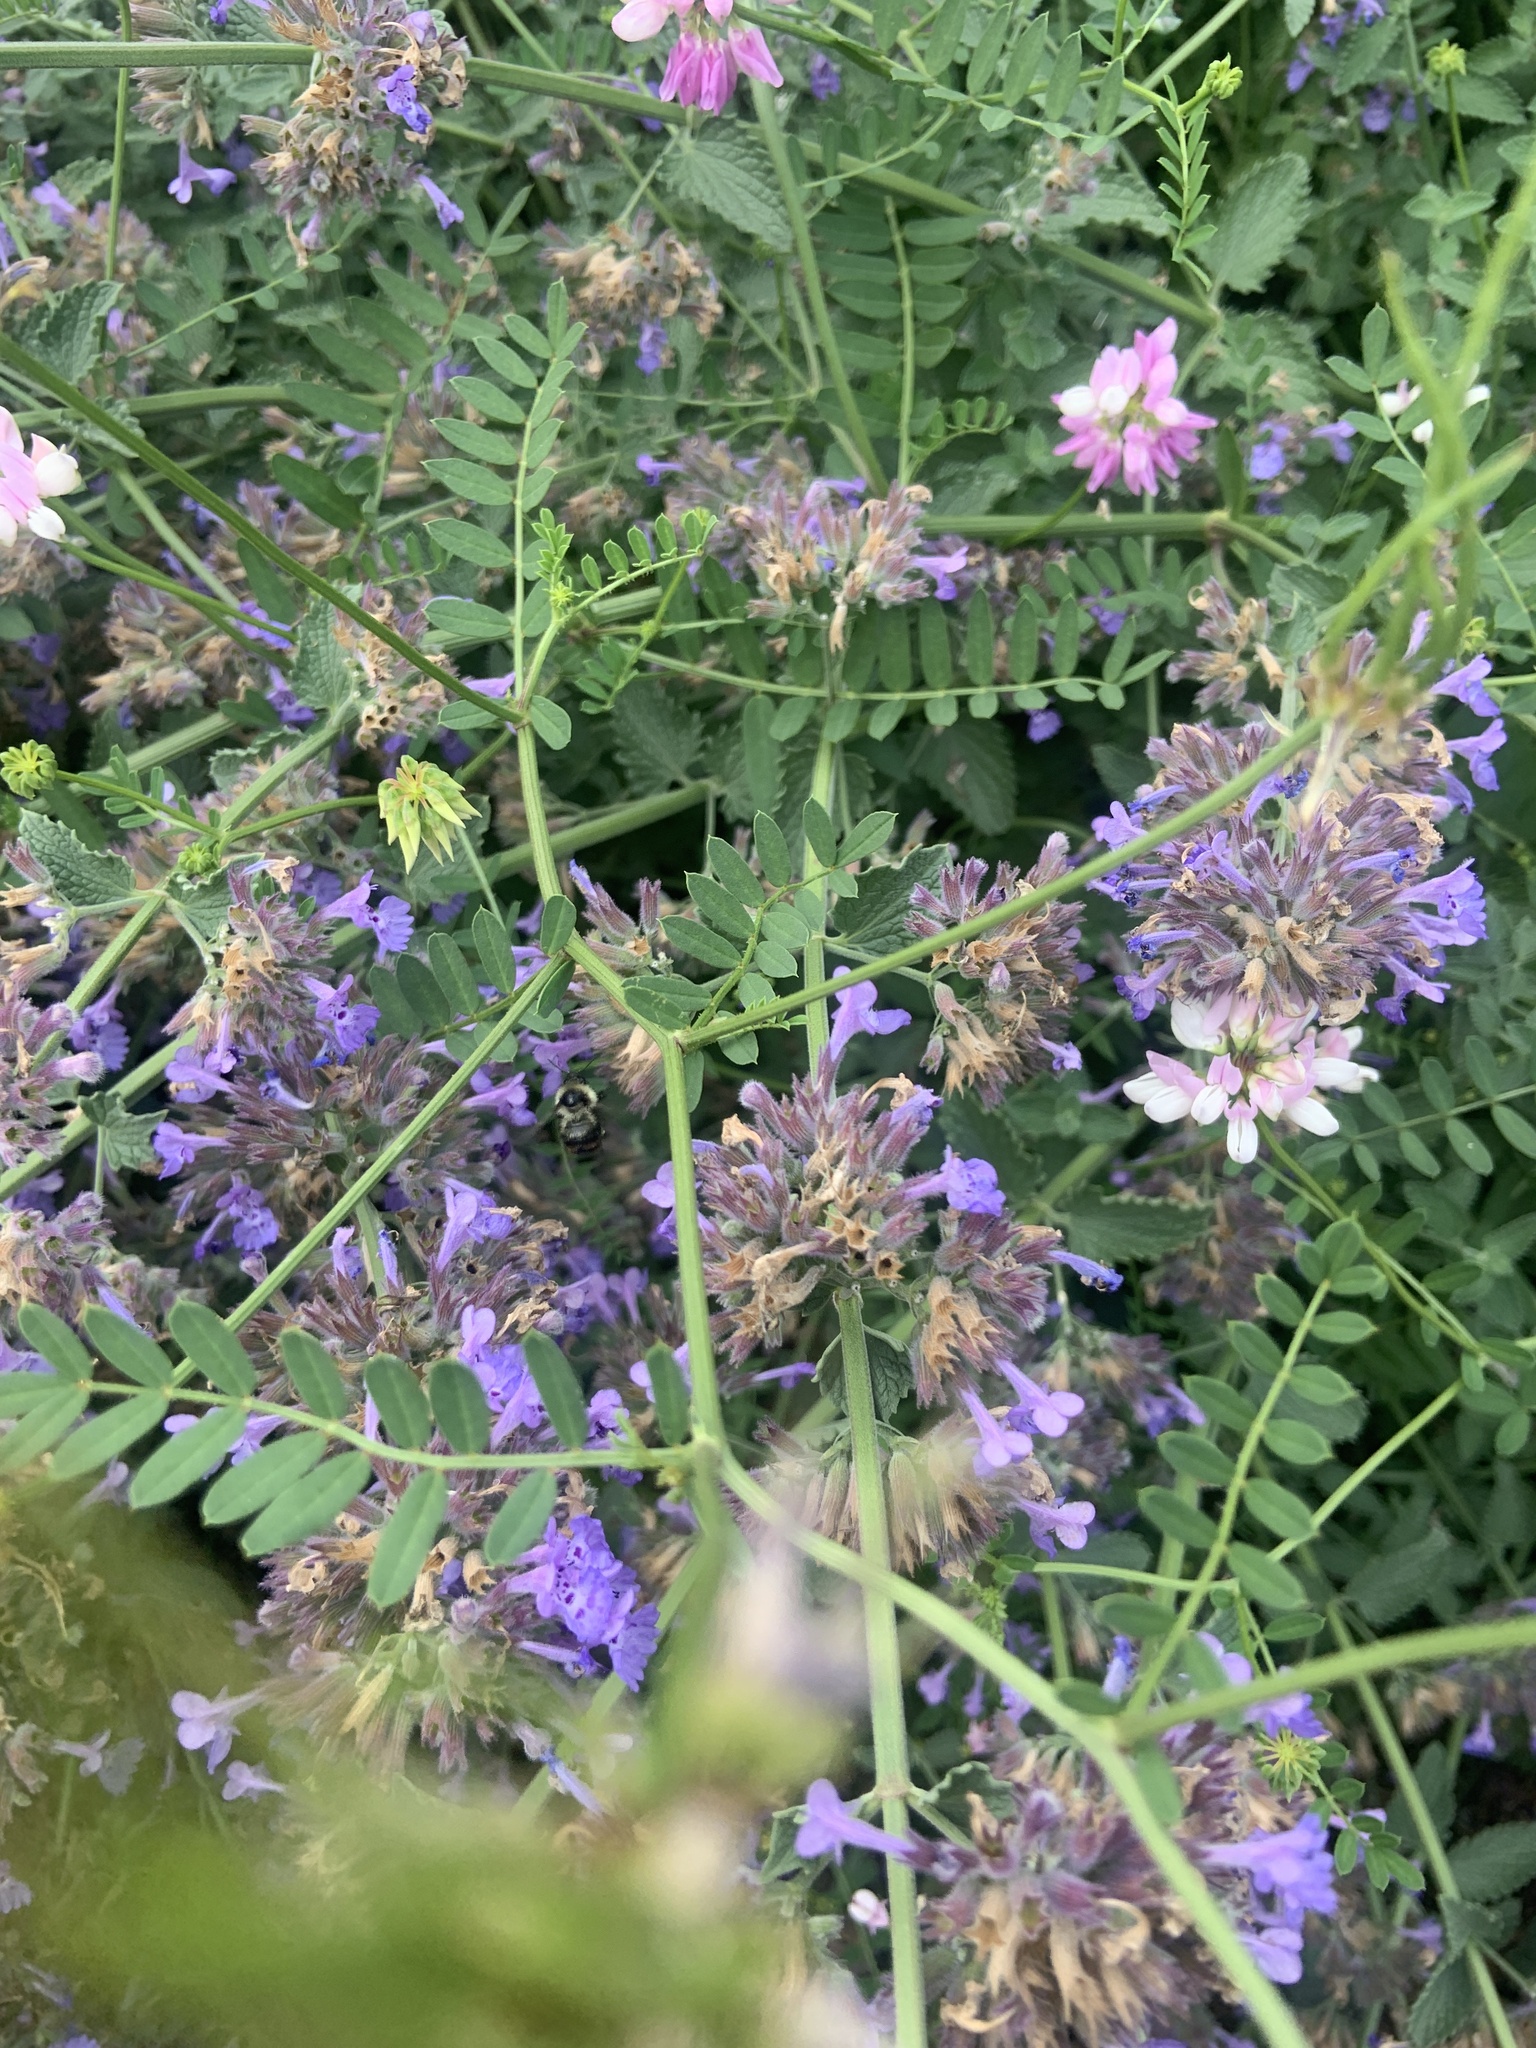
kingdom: Animalia
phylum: Arthropoda
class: Insecta
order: Hymenoptera
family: Apidae
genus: Bombus
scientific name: Bombus rufocinctus
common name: Red-belted bumble bee
